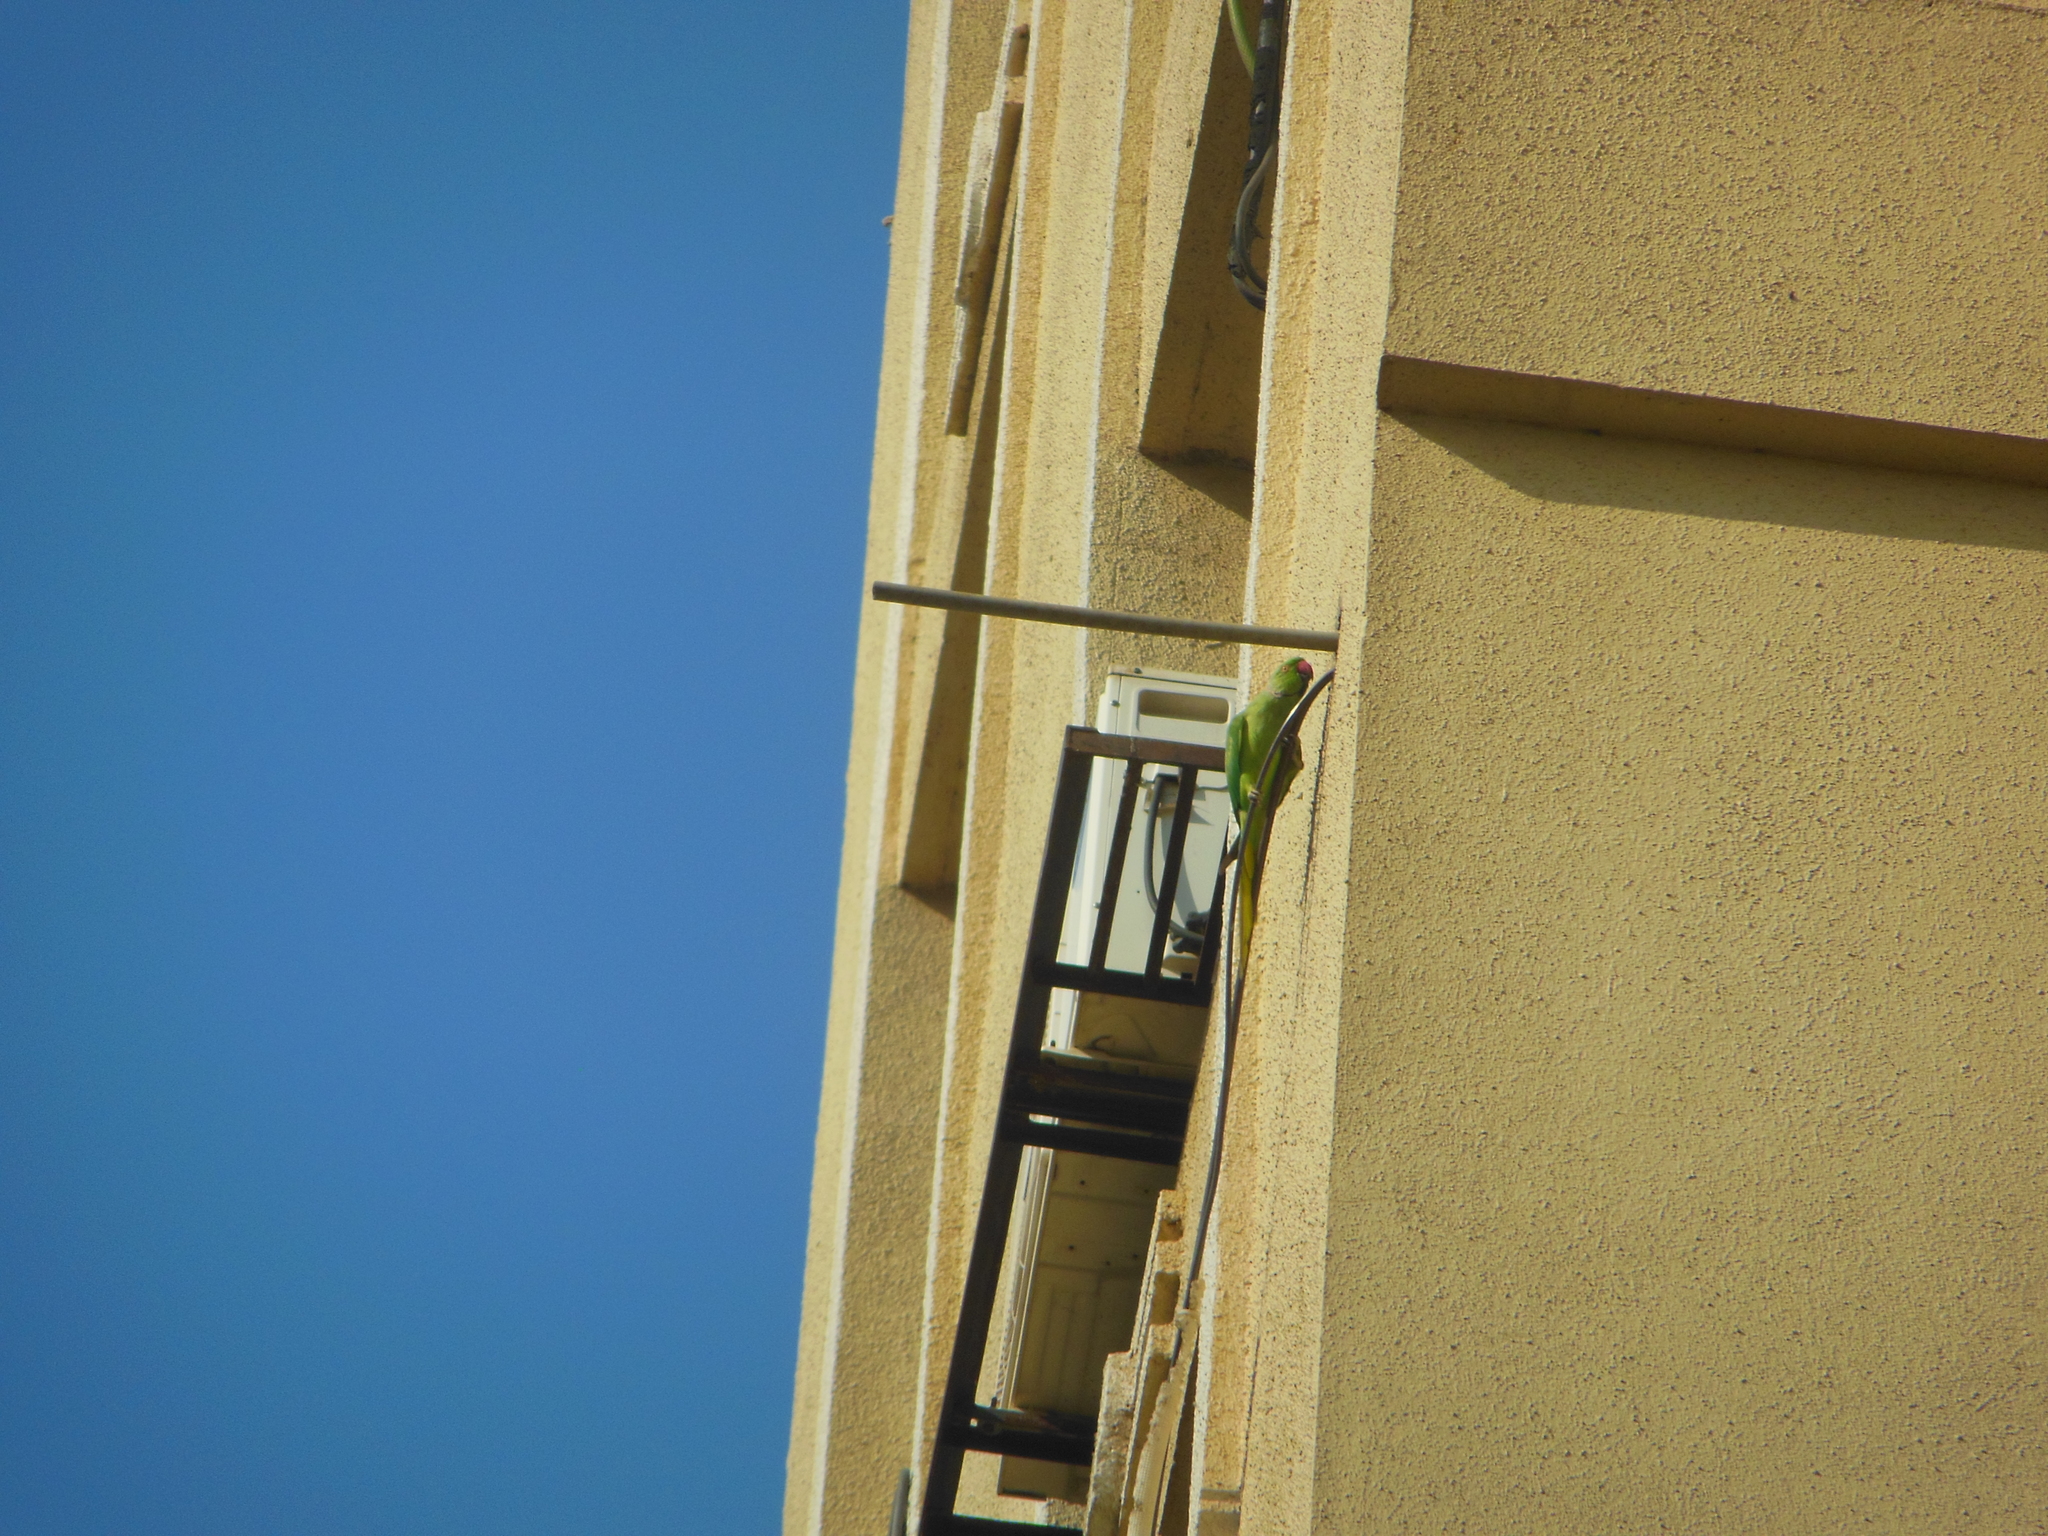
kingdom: Animalia
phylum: Chordata
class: Aves
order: Psittaciformes
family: Psittacidae
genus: Psittacula
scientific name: Psittacula krameri
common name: Rose-ringed parakeet
